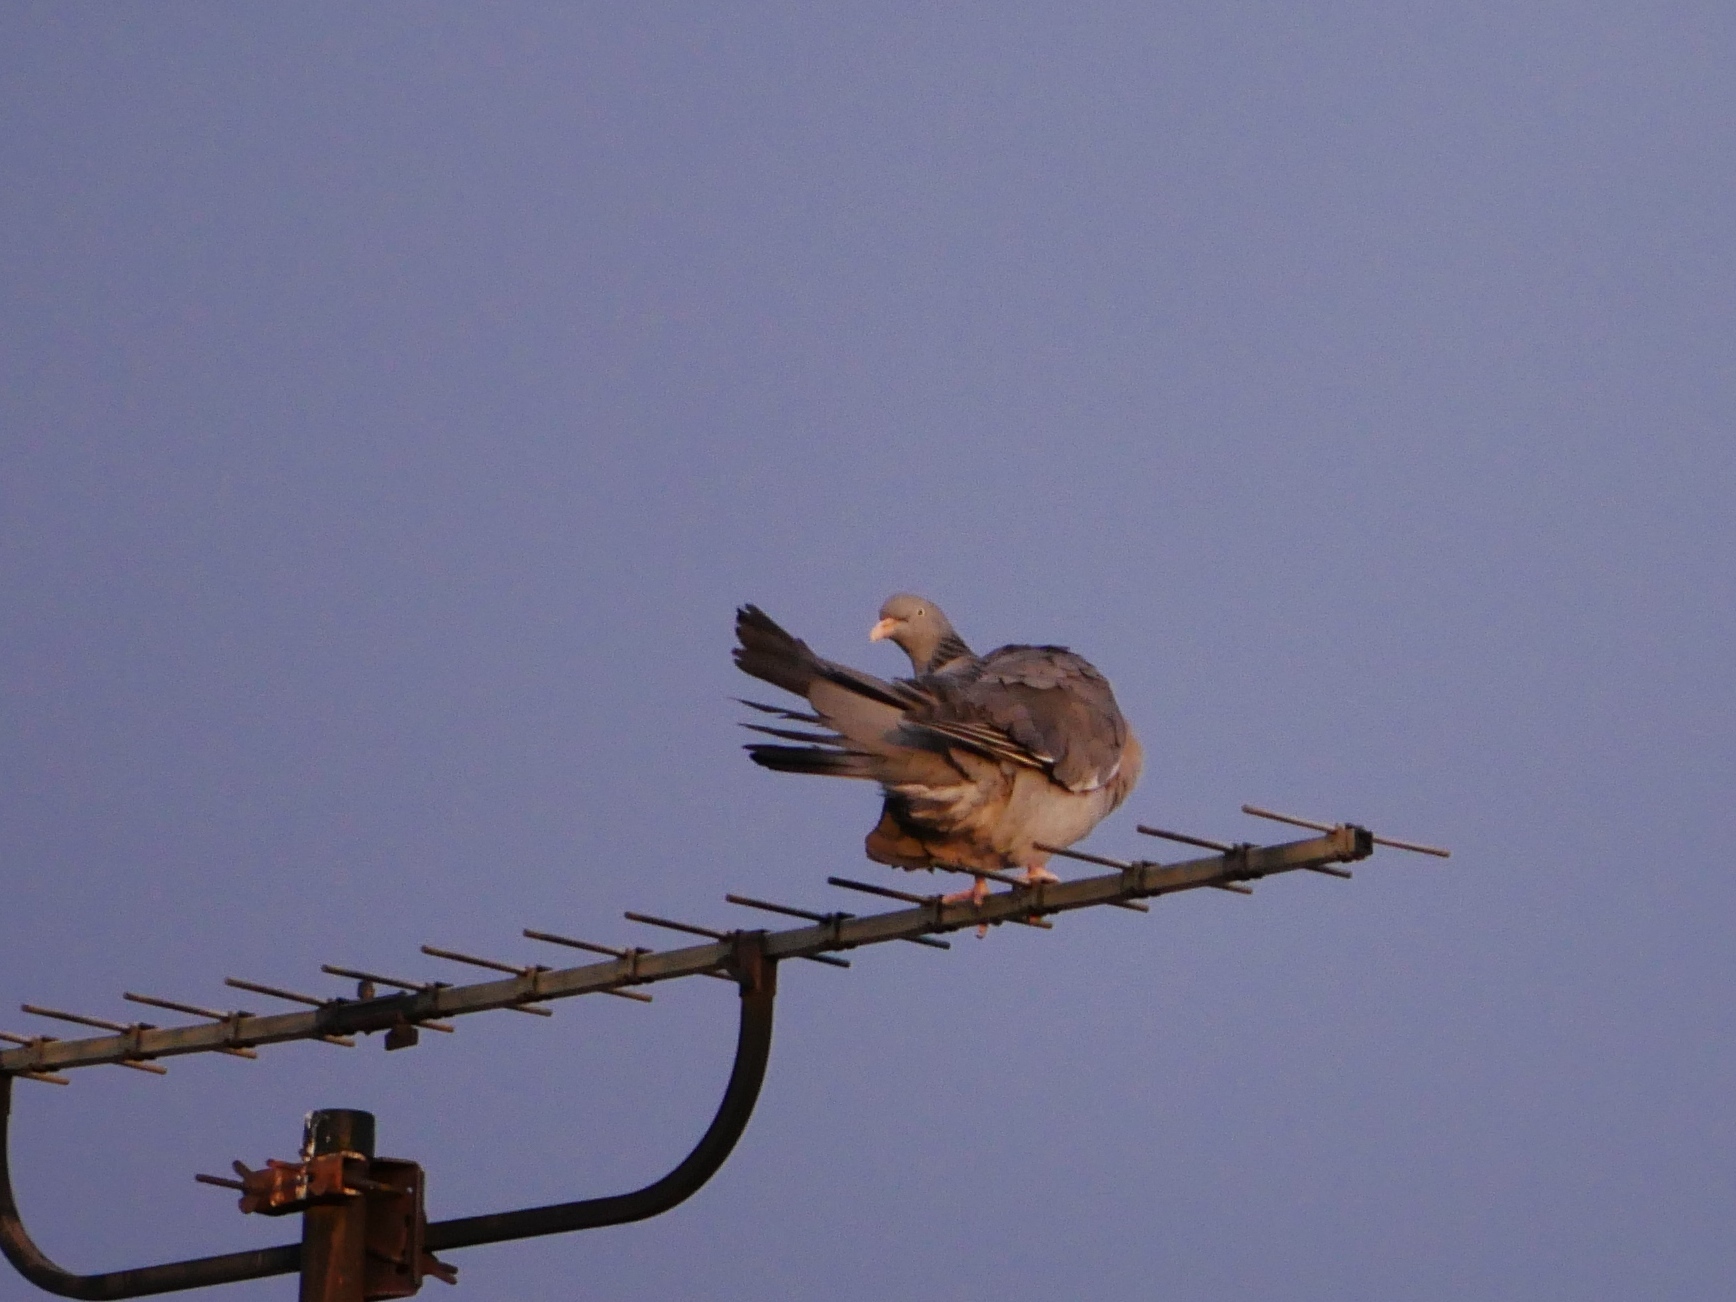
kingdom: Animalia
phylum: Chordata
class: Aves
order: Columbiformes
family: Columbidae
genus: Columba
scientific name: Columba palumbus
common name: Common wood pigeon
